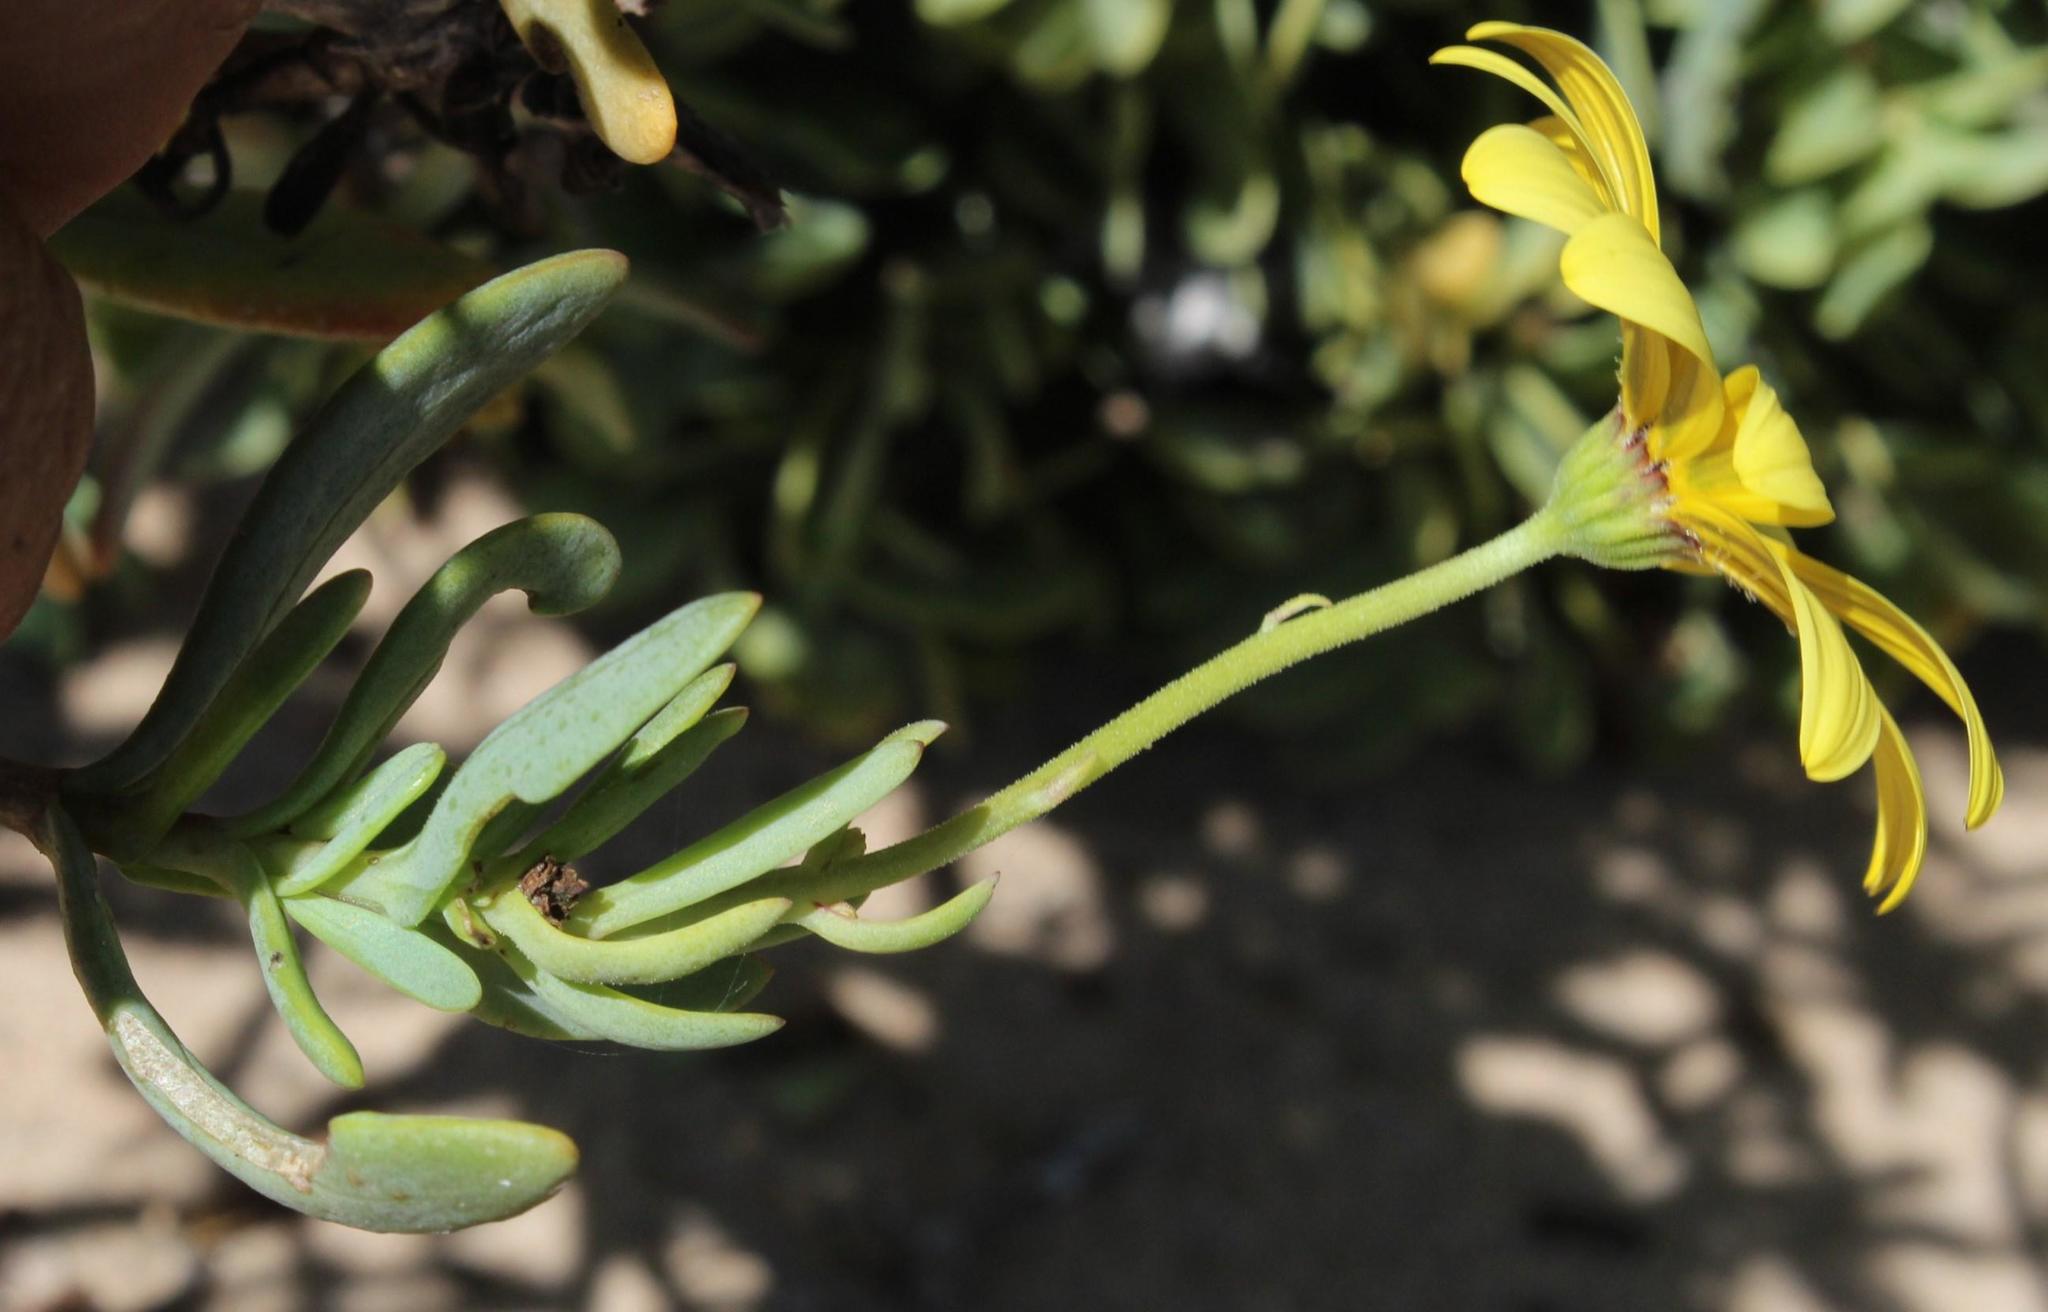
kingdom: Plantae
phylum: Tracheophyta
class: Magnoliopsida
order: Asterales
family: Asteraceae
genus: Othonna
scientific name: Othonna coronopifolia
